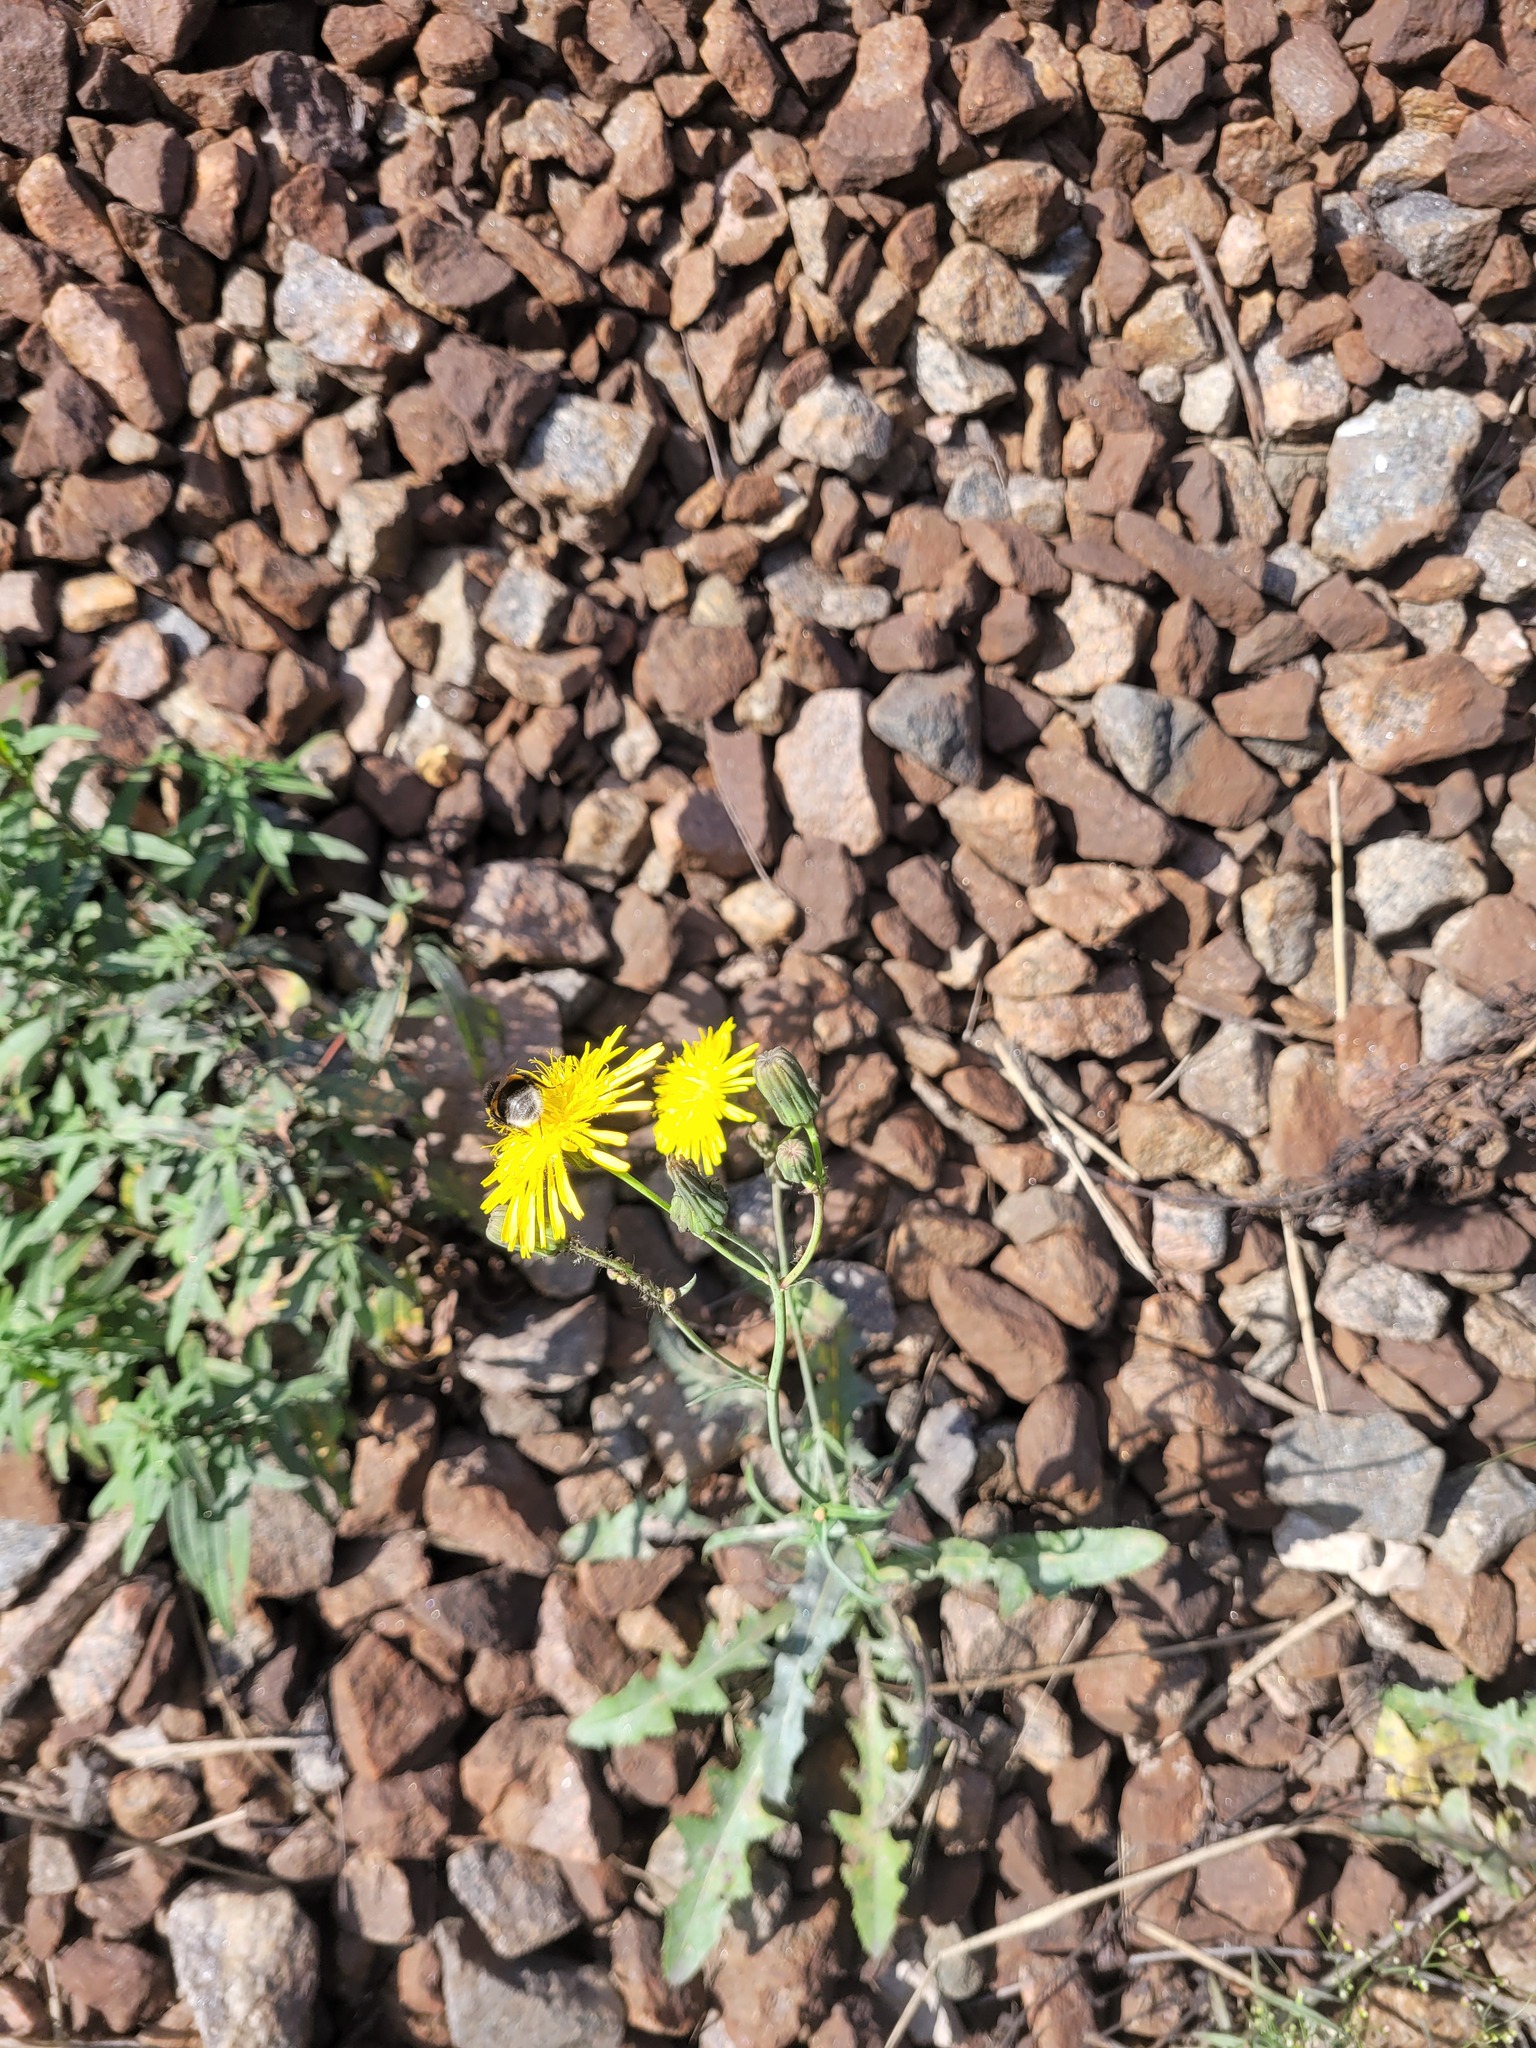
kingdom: Plantae
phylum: Tracheophyta
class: Magnoliopsida
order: Asterales
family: Asteraceae
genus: Sonchus
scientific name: Sonchus arvensis
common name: Perennial sow-thistle
